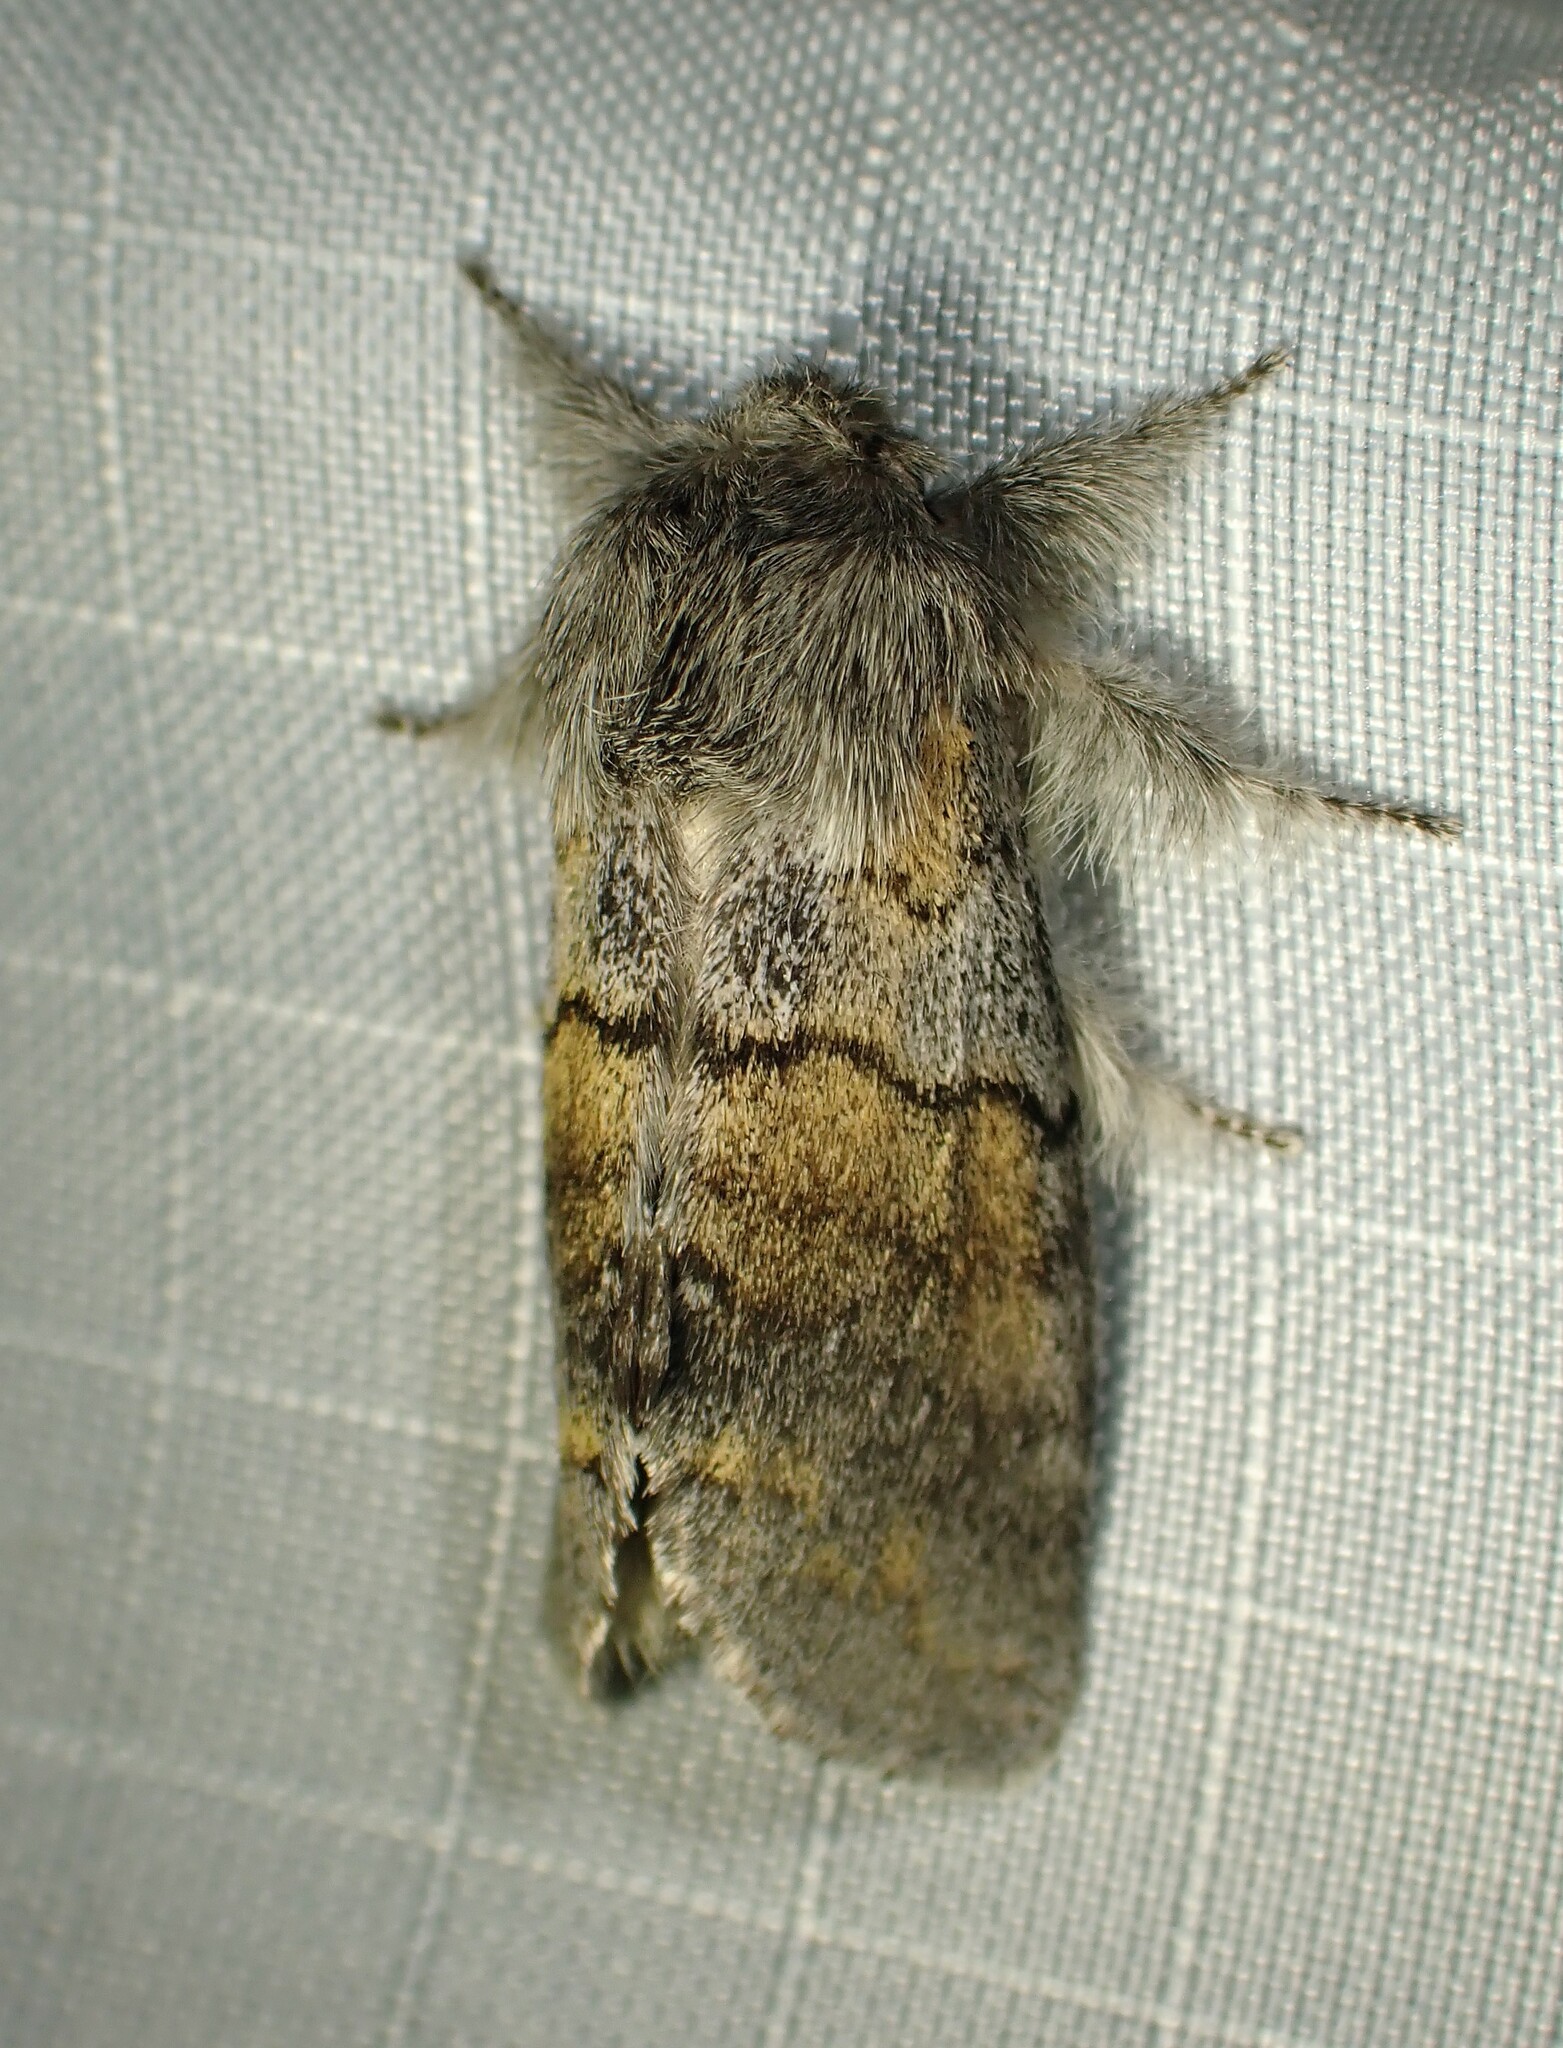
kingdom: Animalia
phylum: Arthropoda
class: Insecta
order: Lepidoptera
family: Notodontidae
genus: Gluphisia
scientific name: Gluphisia lintneri
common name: Lintner's gluphisia moth
